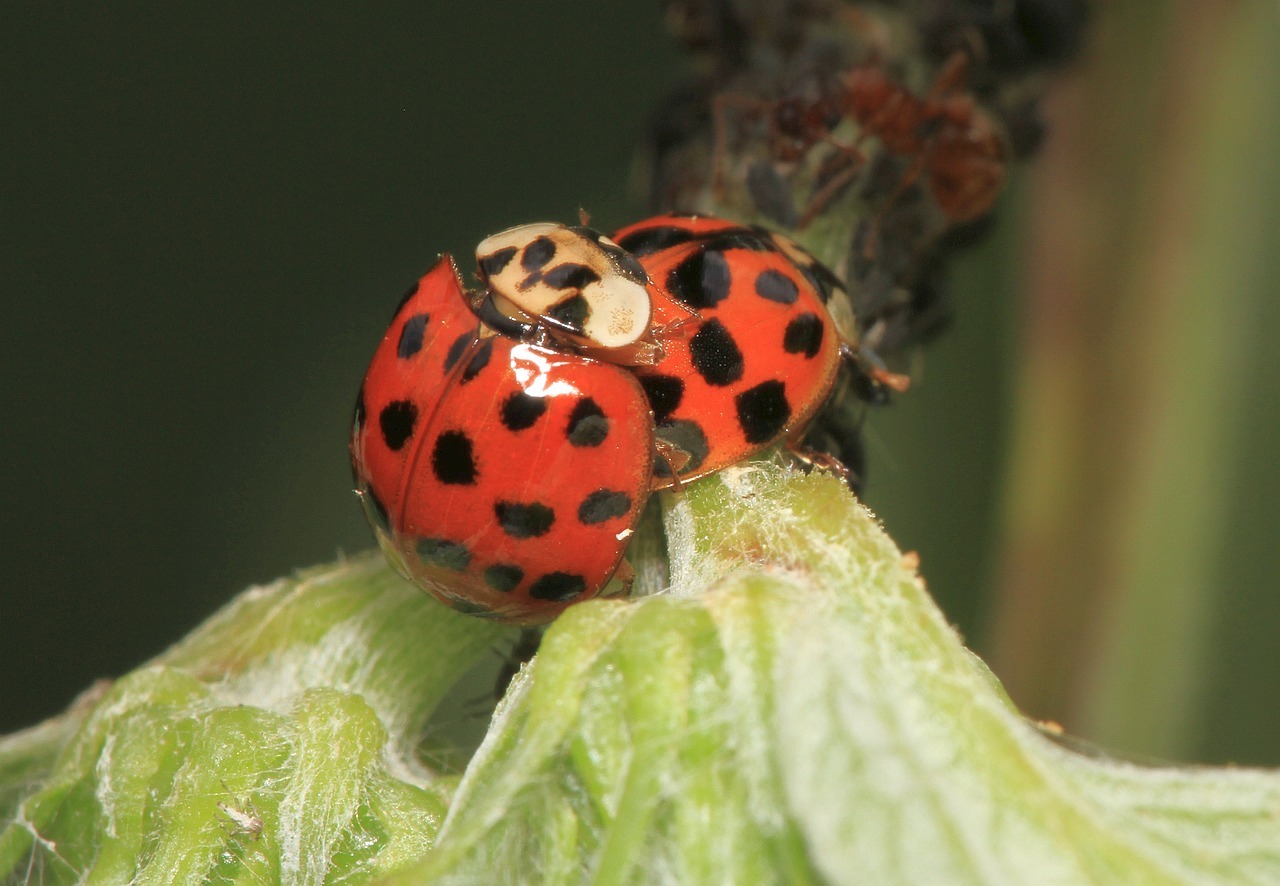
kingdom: Animalia
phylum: Arthropoda
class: Insecta
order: Coleoptera
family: Coccinellidae
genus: Harmonia
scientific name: Harmonia axyridis
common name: Harlequin ladybird
